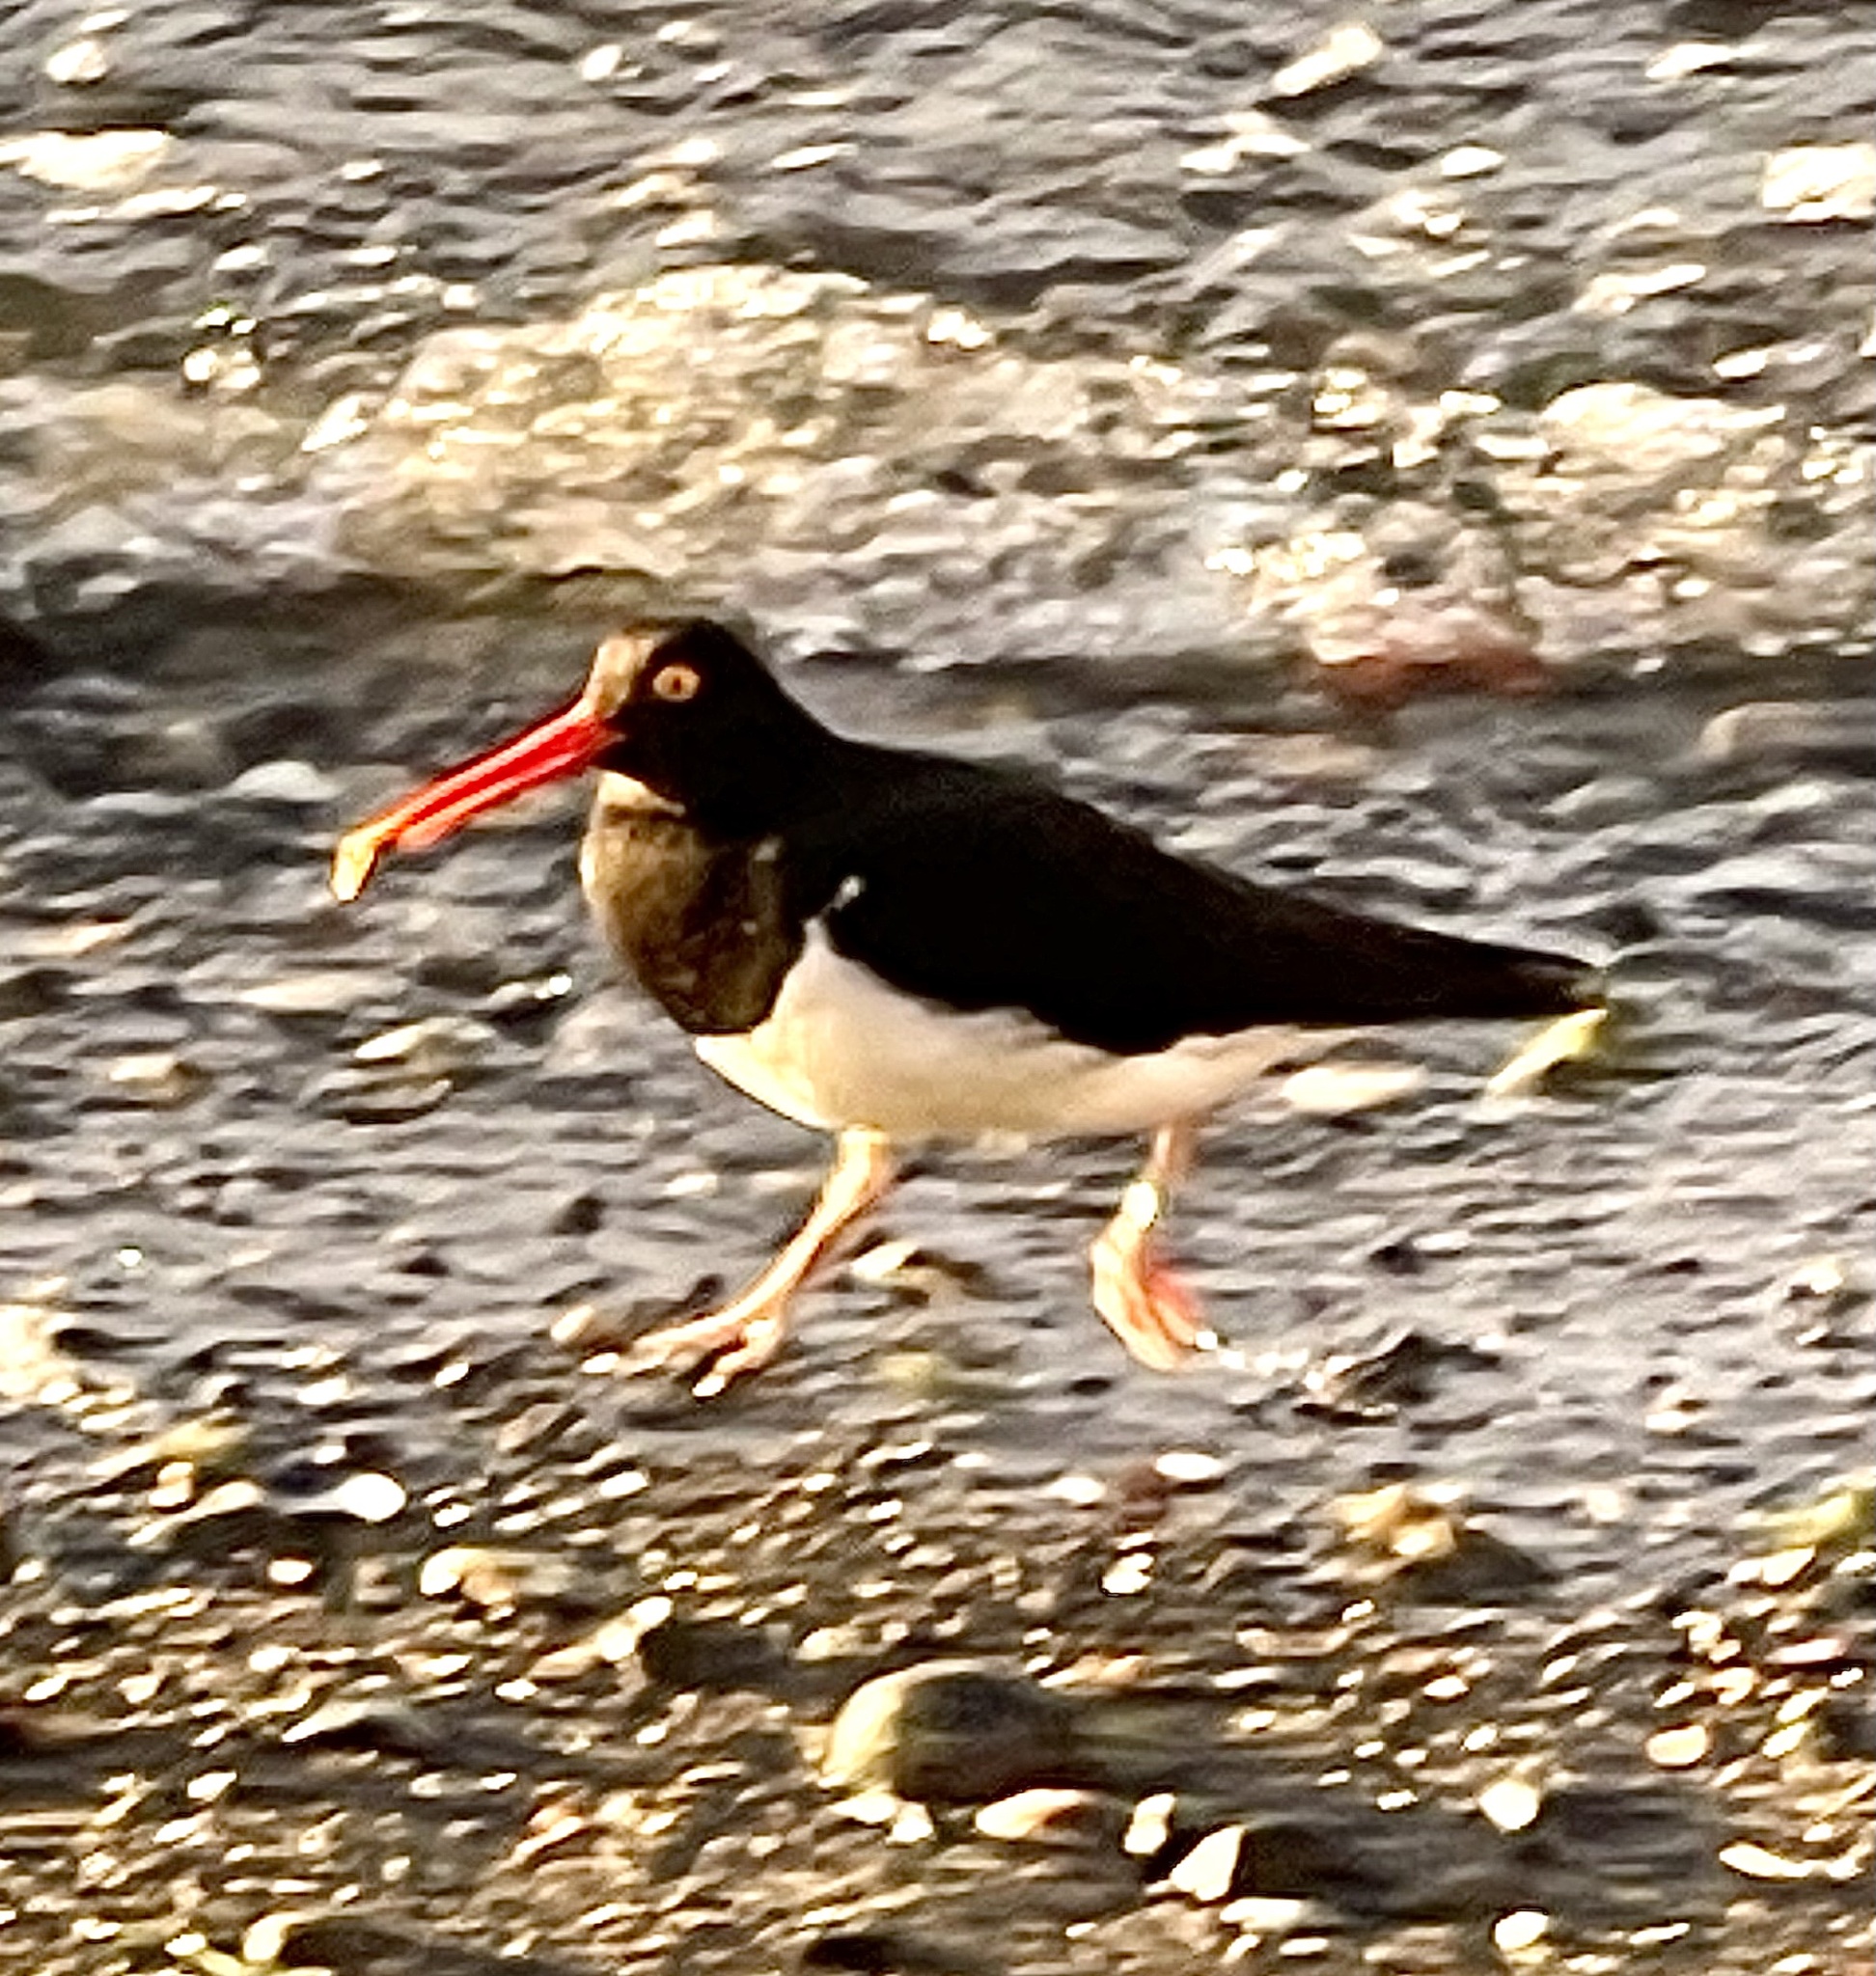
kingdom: Animalia
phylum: Chordata
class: Aves
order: Charadriiformes
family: Haematopodidae
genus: Haematopus
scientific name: Haematopus leucopodus
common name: Magellanic oystercatcher
